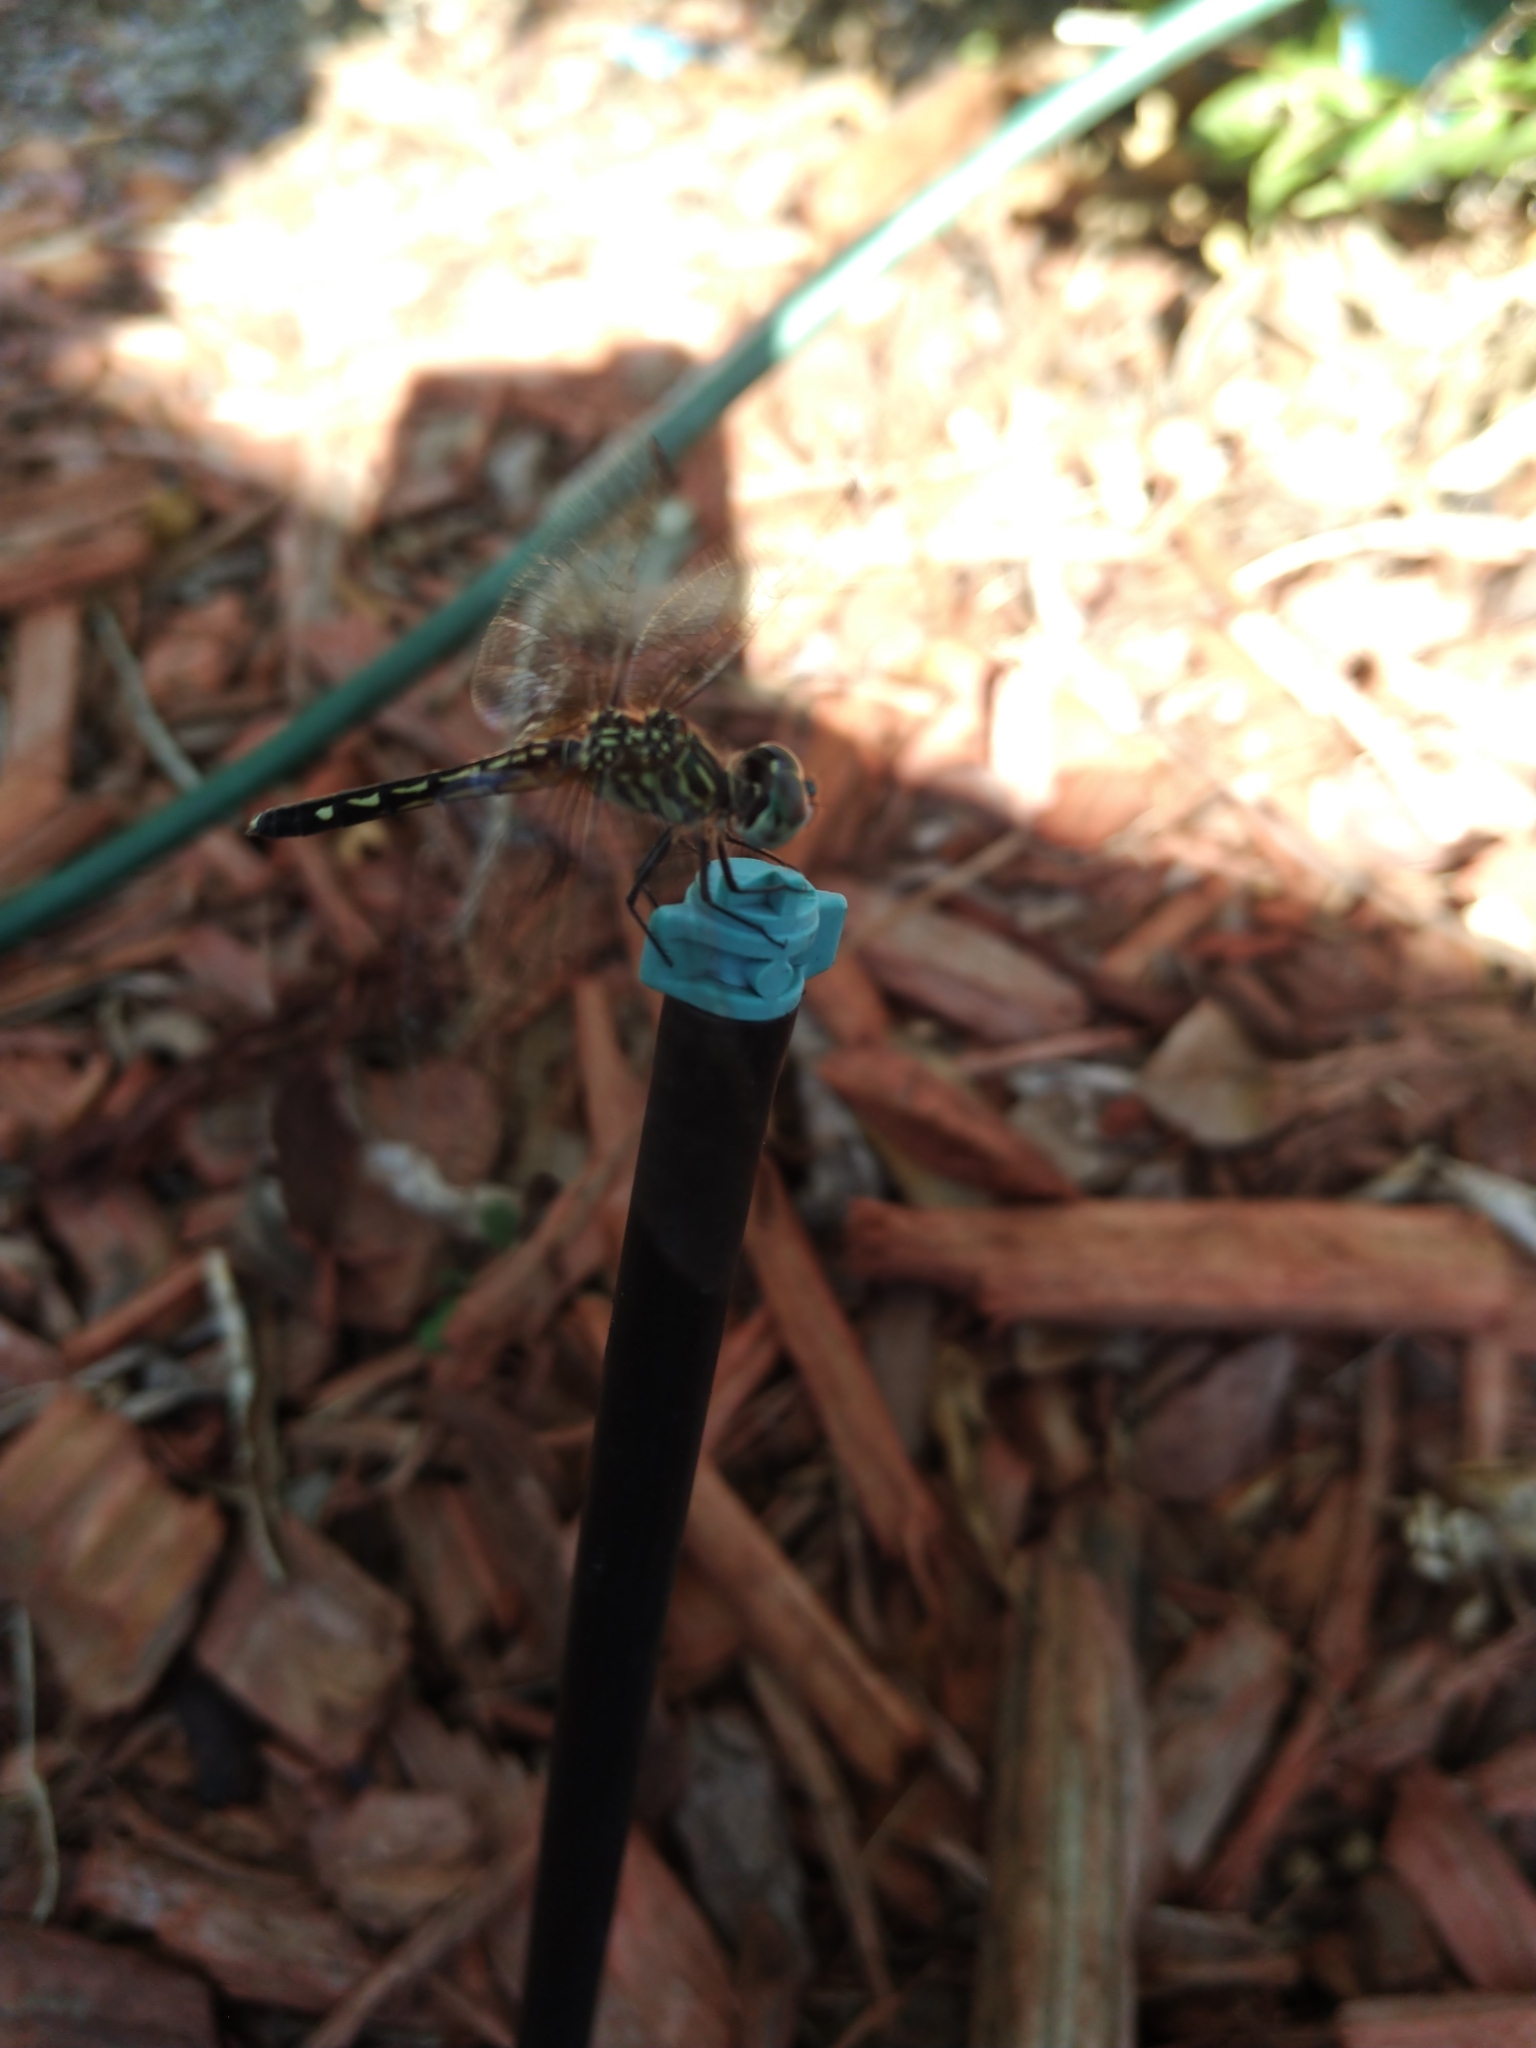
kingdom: Animalia
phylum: Arthropoda
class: Insecta
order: Odonata
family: Libellulidae
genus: Pachydiplax
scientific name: Pachydiplax longipennis
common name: Blue dasher
